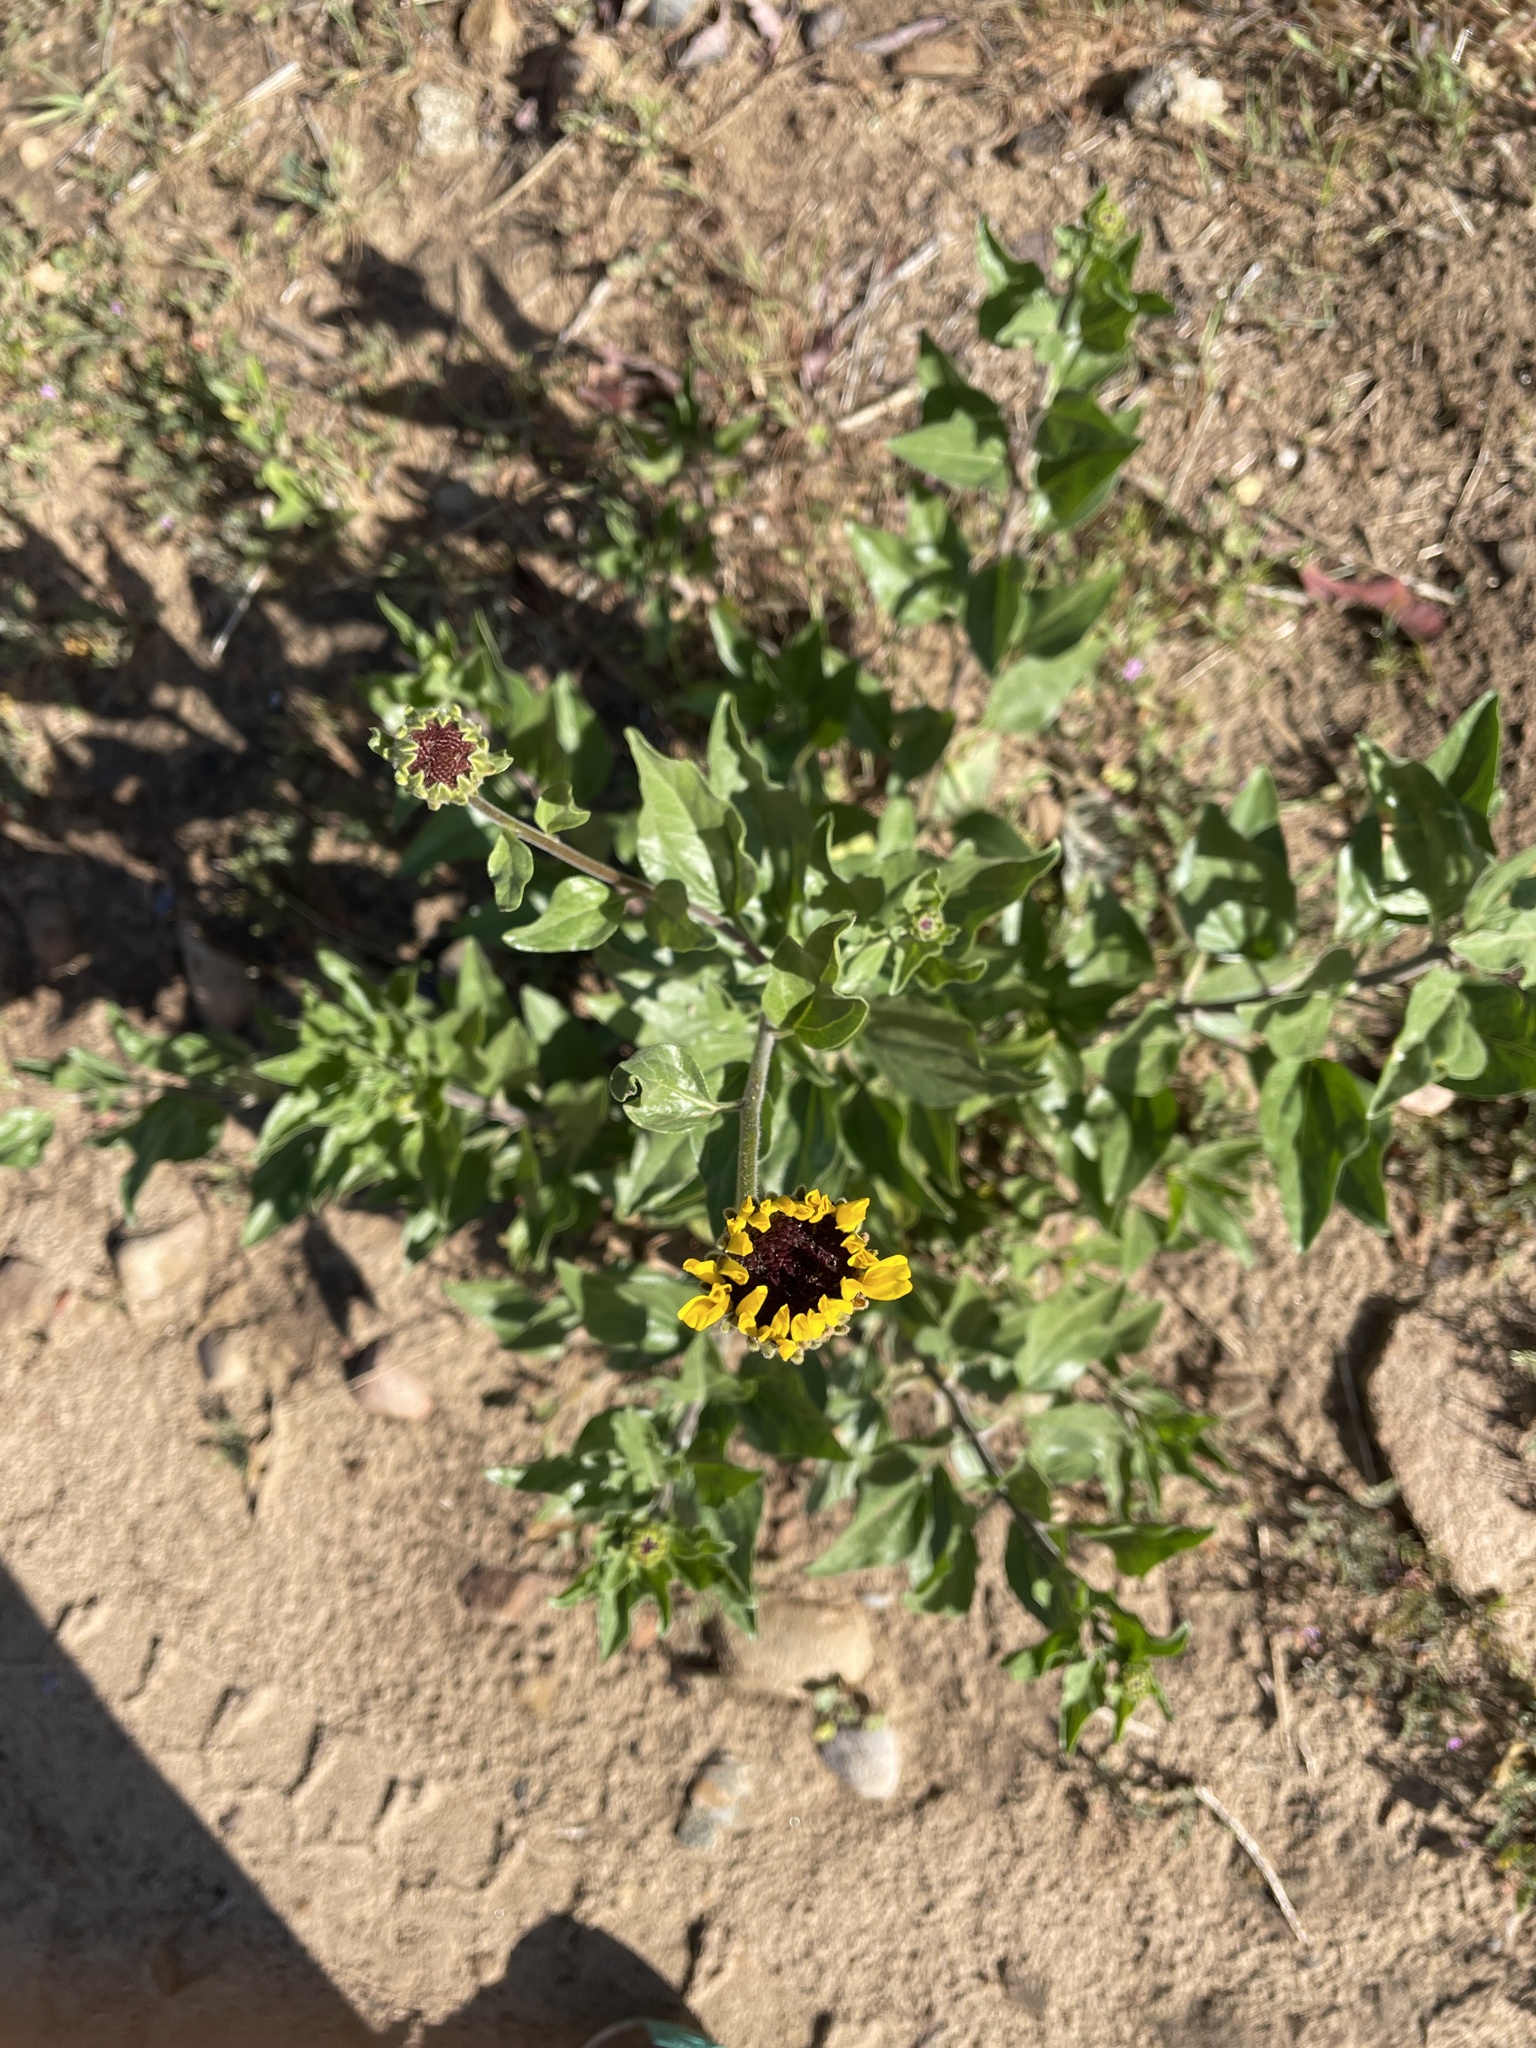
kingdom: Plantae
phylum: Tracheophyta
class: Magnoliopsida
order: Asterales
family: Asteraceae
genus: Encelia
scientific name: Encelia californica
